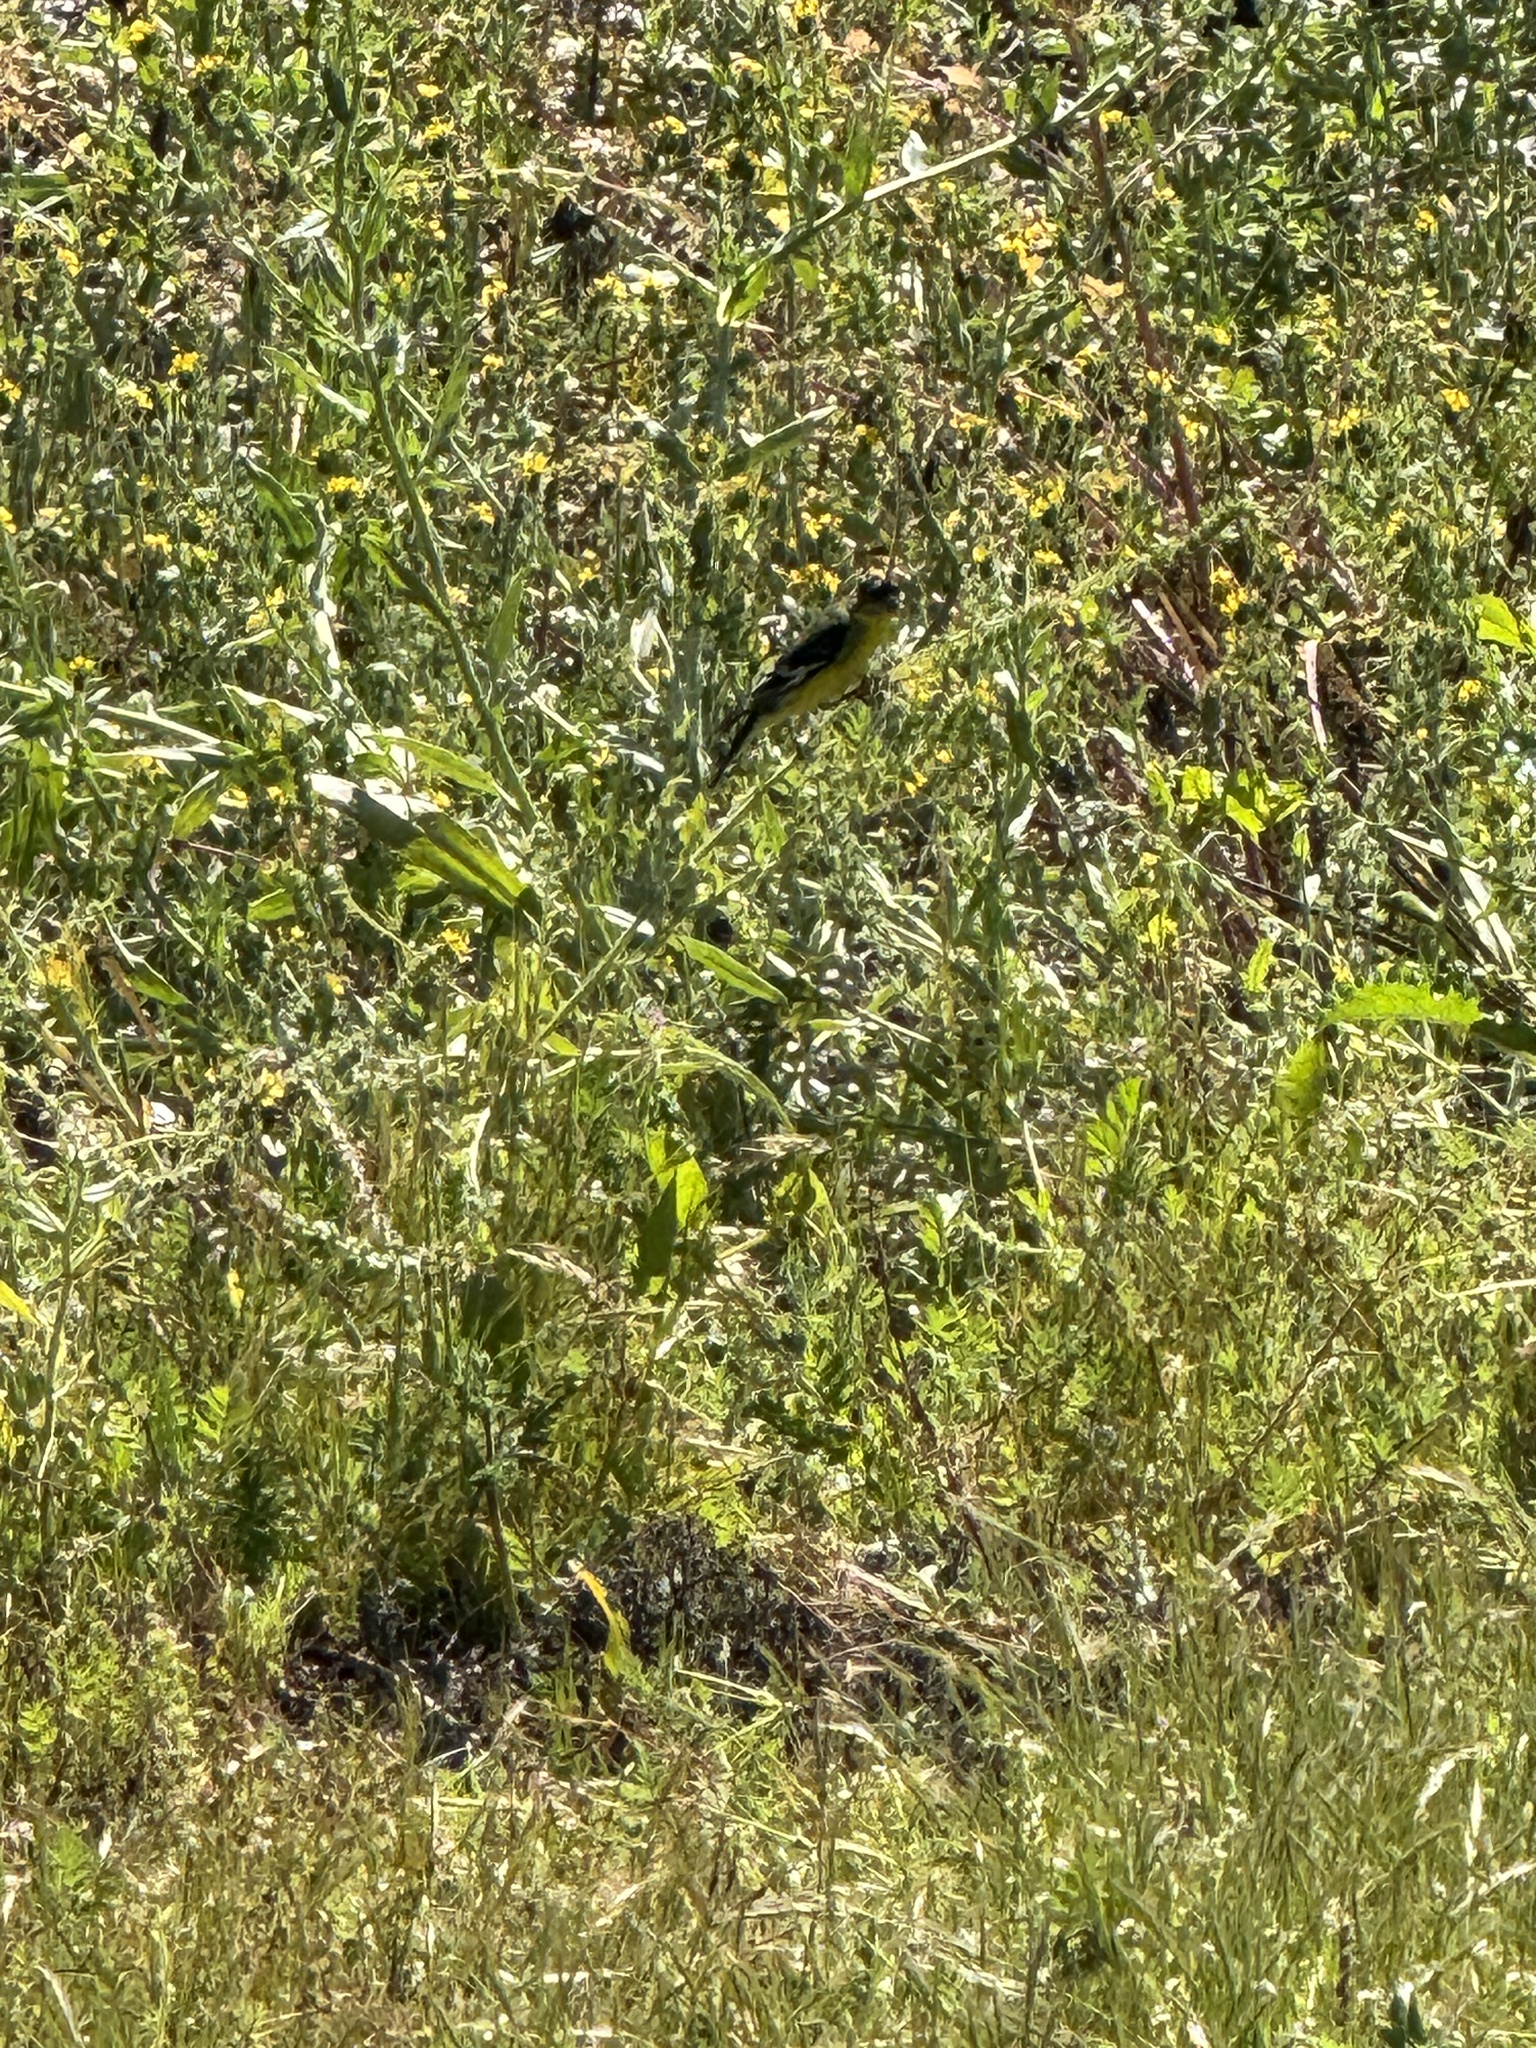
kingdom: Animalia
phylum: Chordata
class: Aves
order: Passeriformes
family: Fringillidae
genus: Spinus
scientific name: Spinus psaltria
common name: Lesser goldfinch
